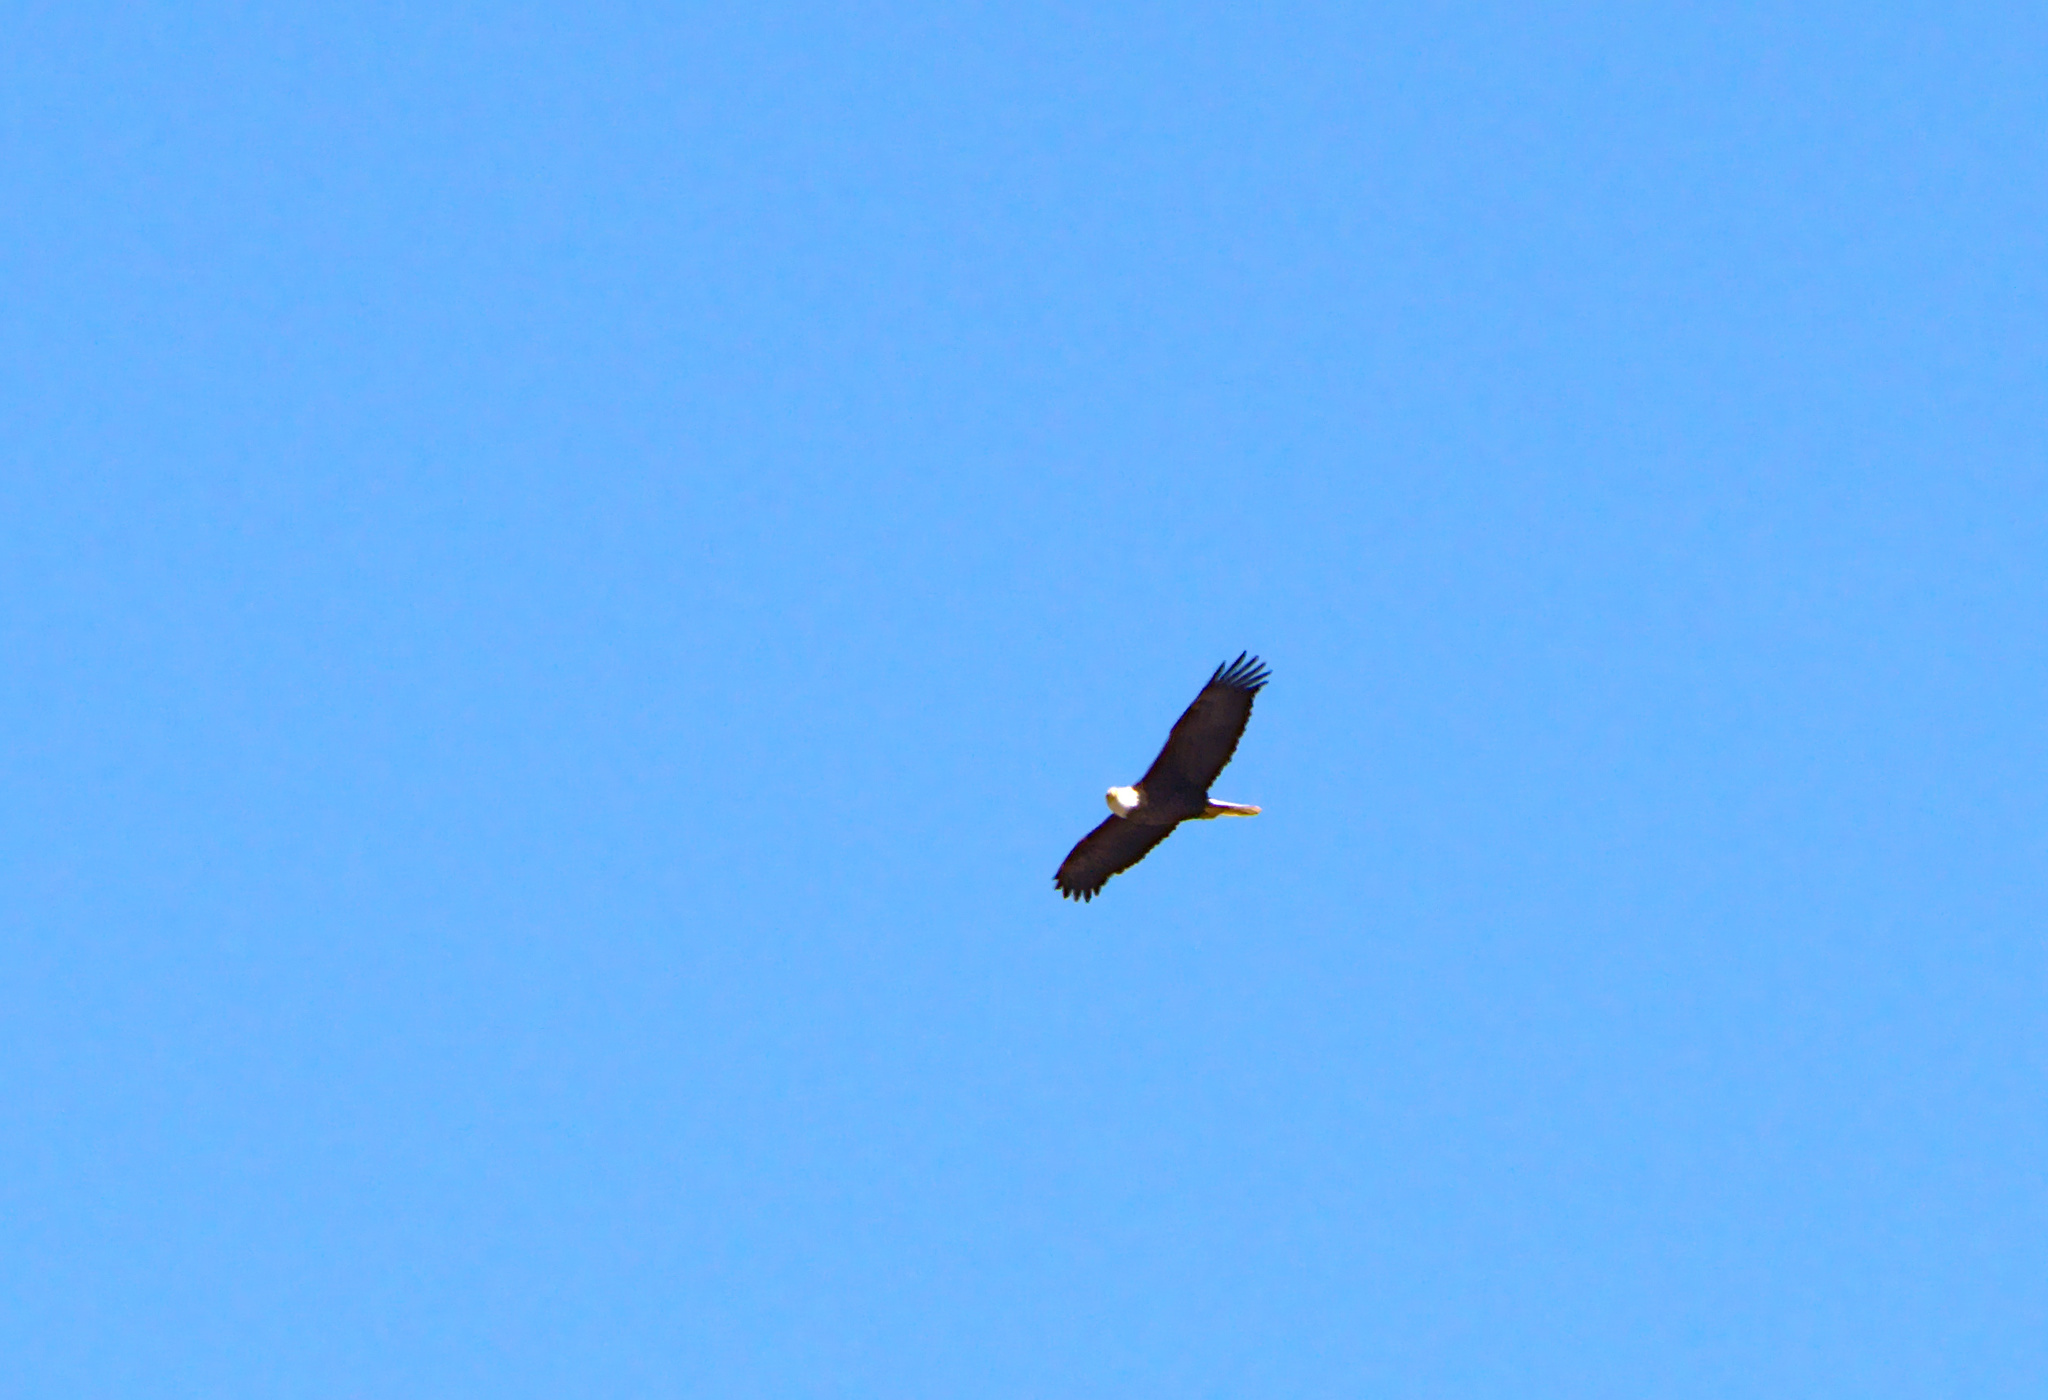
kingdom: Animalia
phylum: Chordata
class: Aves
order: Accipitriformes
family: Accipitridae
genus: Haliaeetus
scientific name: Haliaeetus leucocephalus
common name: Bald eagle
